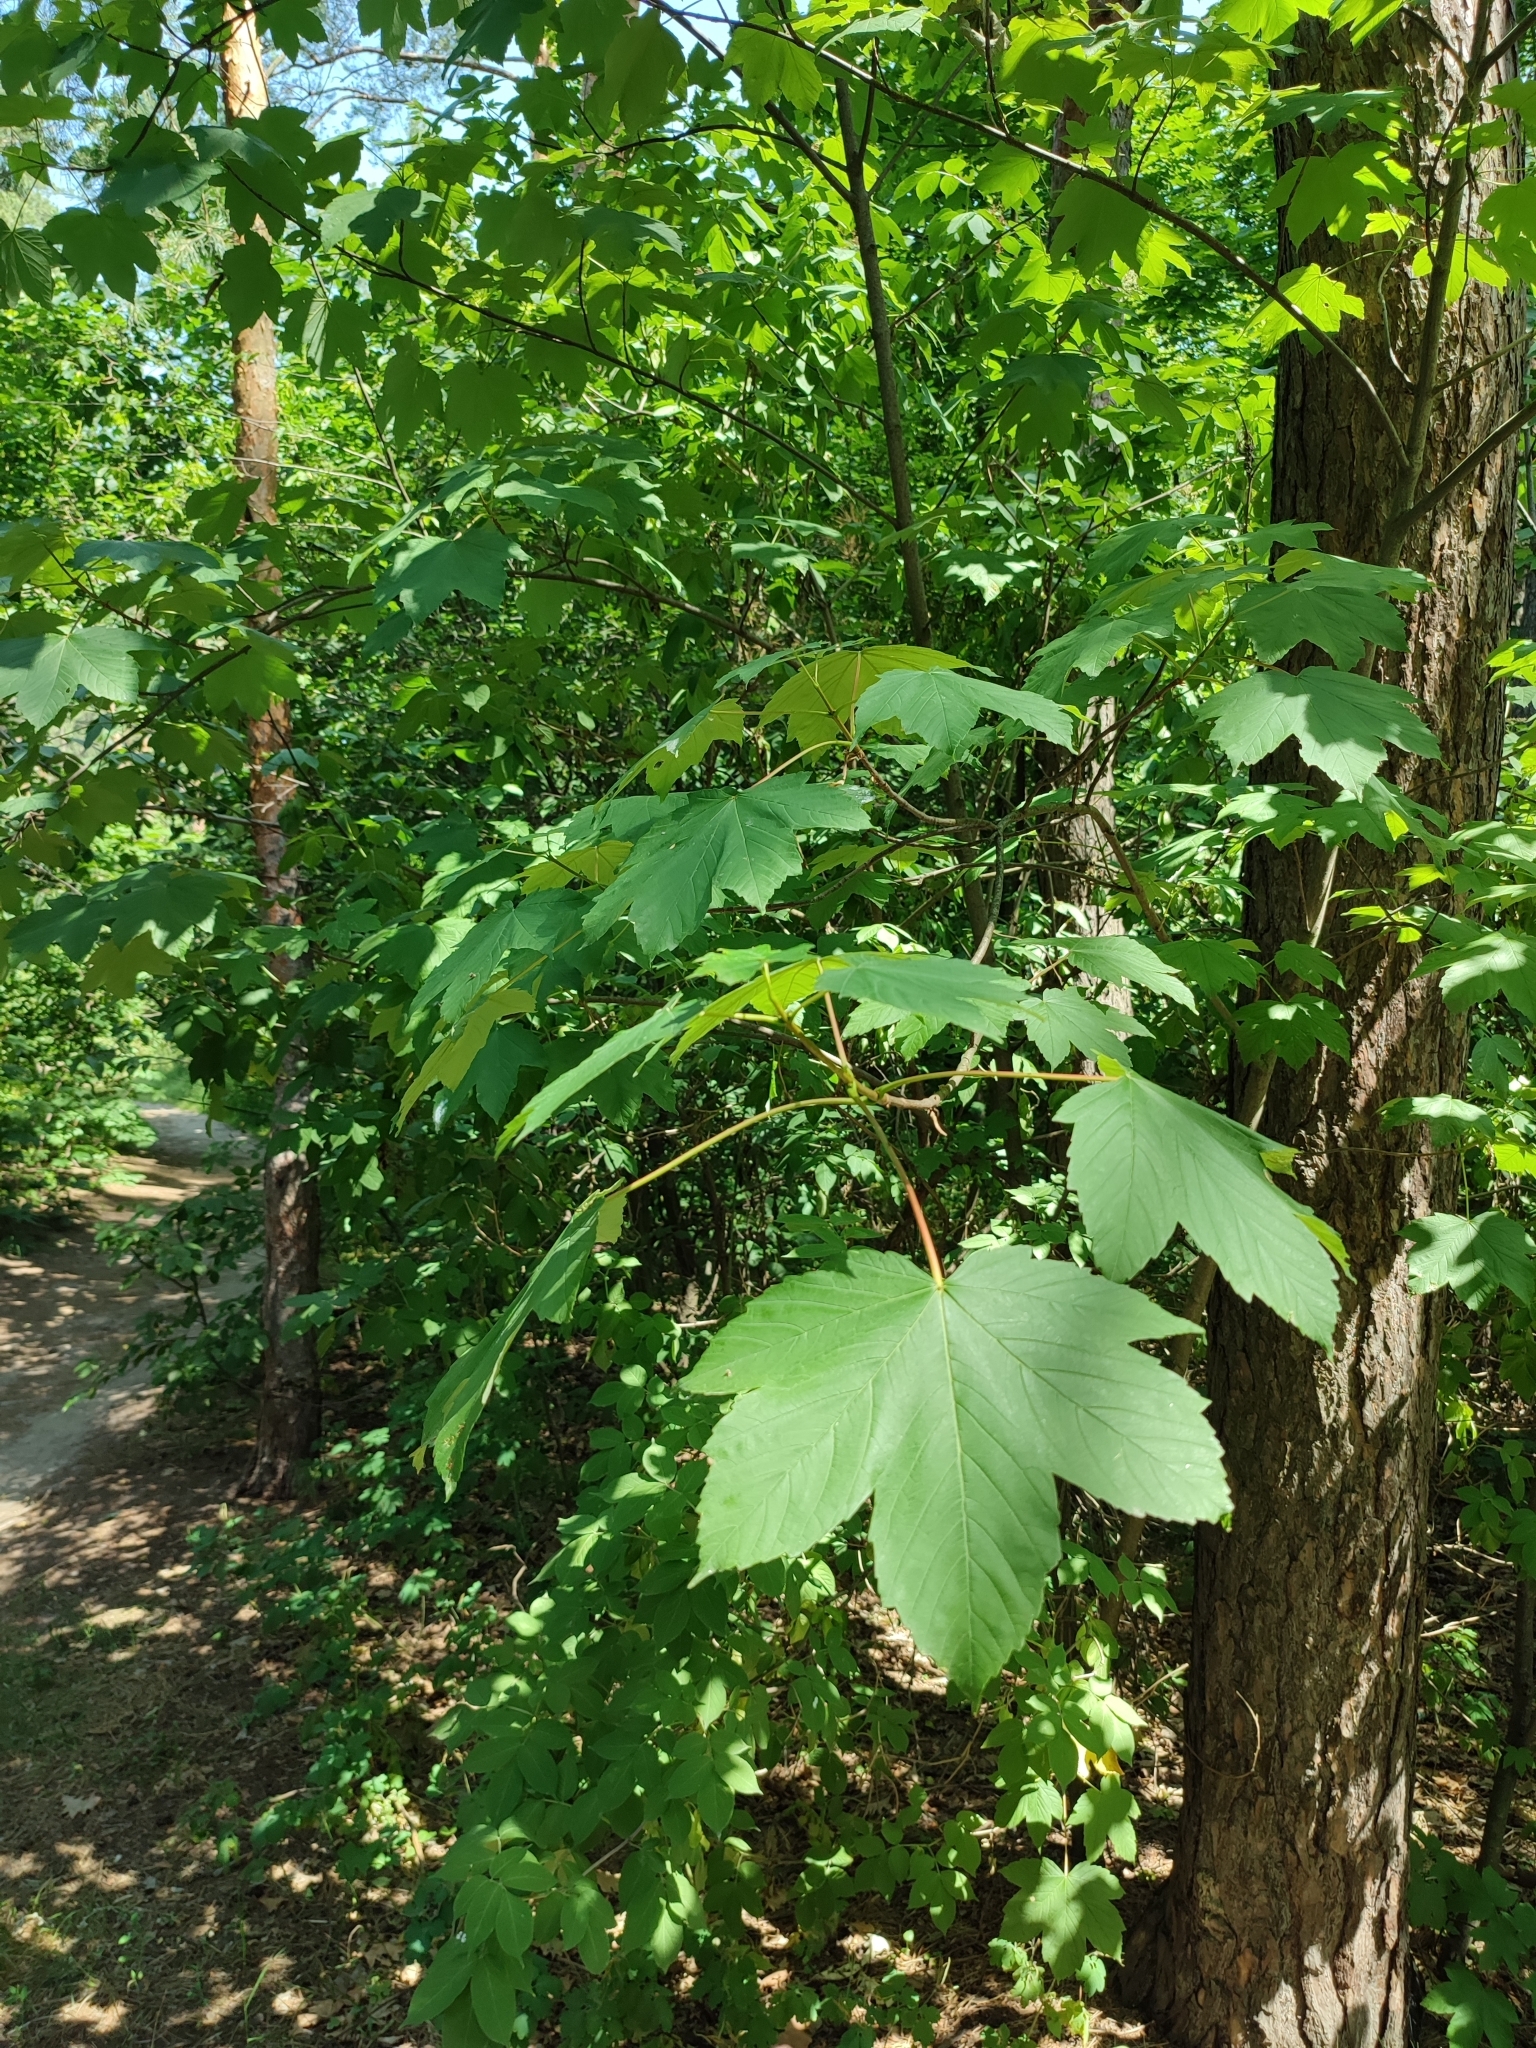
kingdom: Plantae
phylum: Tracheophyta
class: Magnoliopsida
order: Sapindales
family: Sapindaceae
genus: Acer
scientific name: Acer pseudoplatanus
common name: Sycamore
